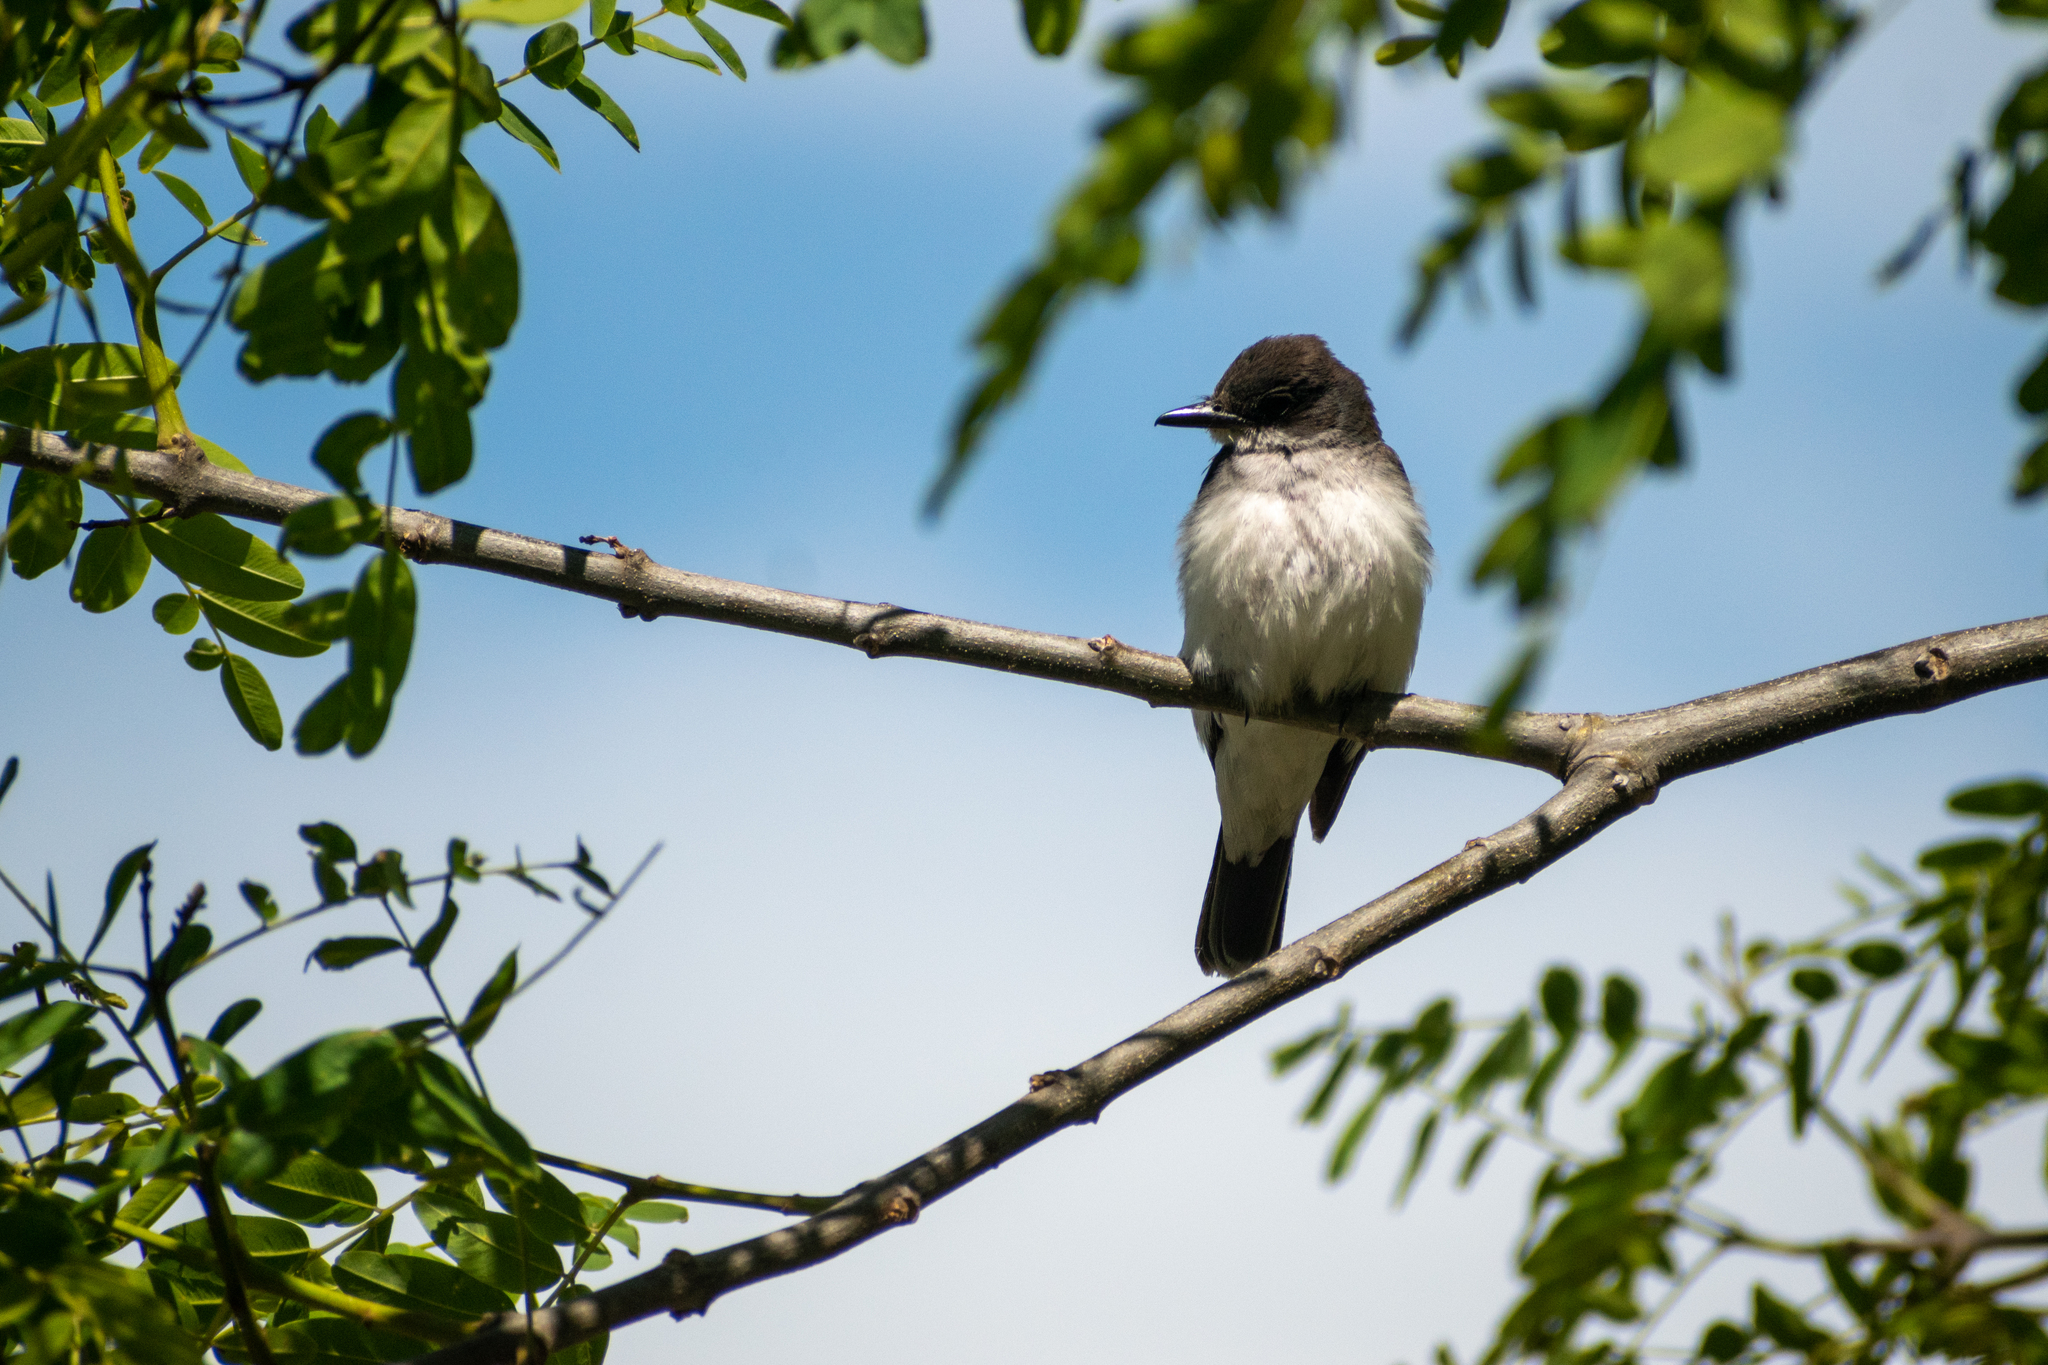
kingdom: Animalia
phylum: Chordata
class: Aves
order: Passeriformes
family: Tyrannidae
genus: Tyrannus
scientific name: Tyrannus tyrannus
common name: Eastern kingbird
